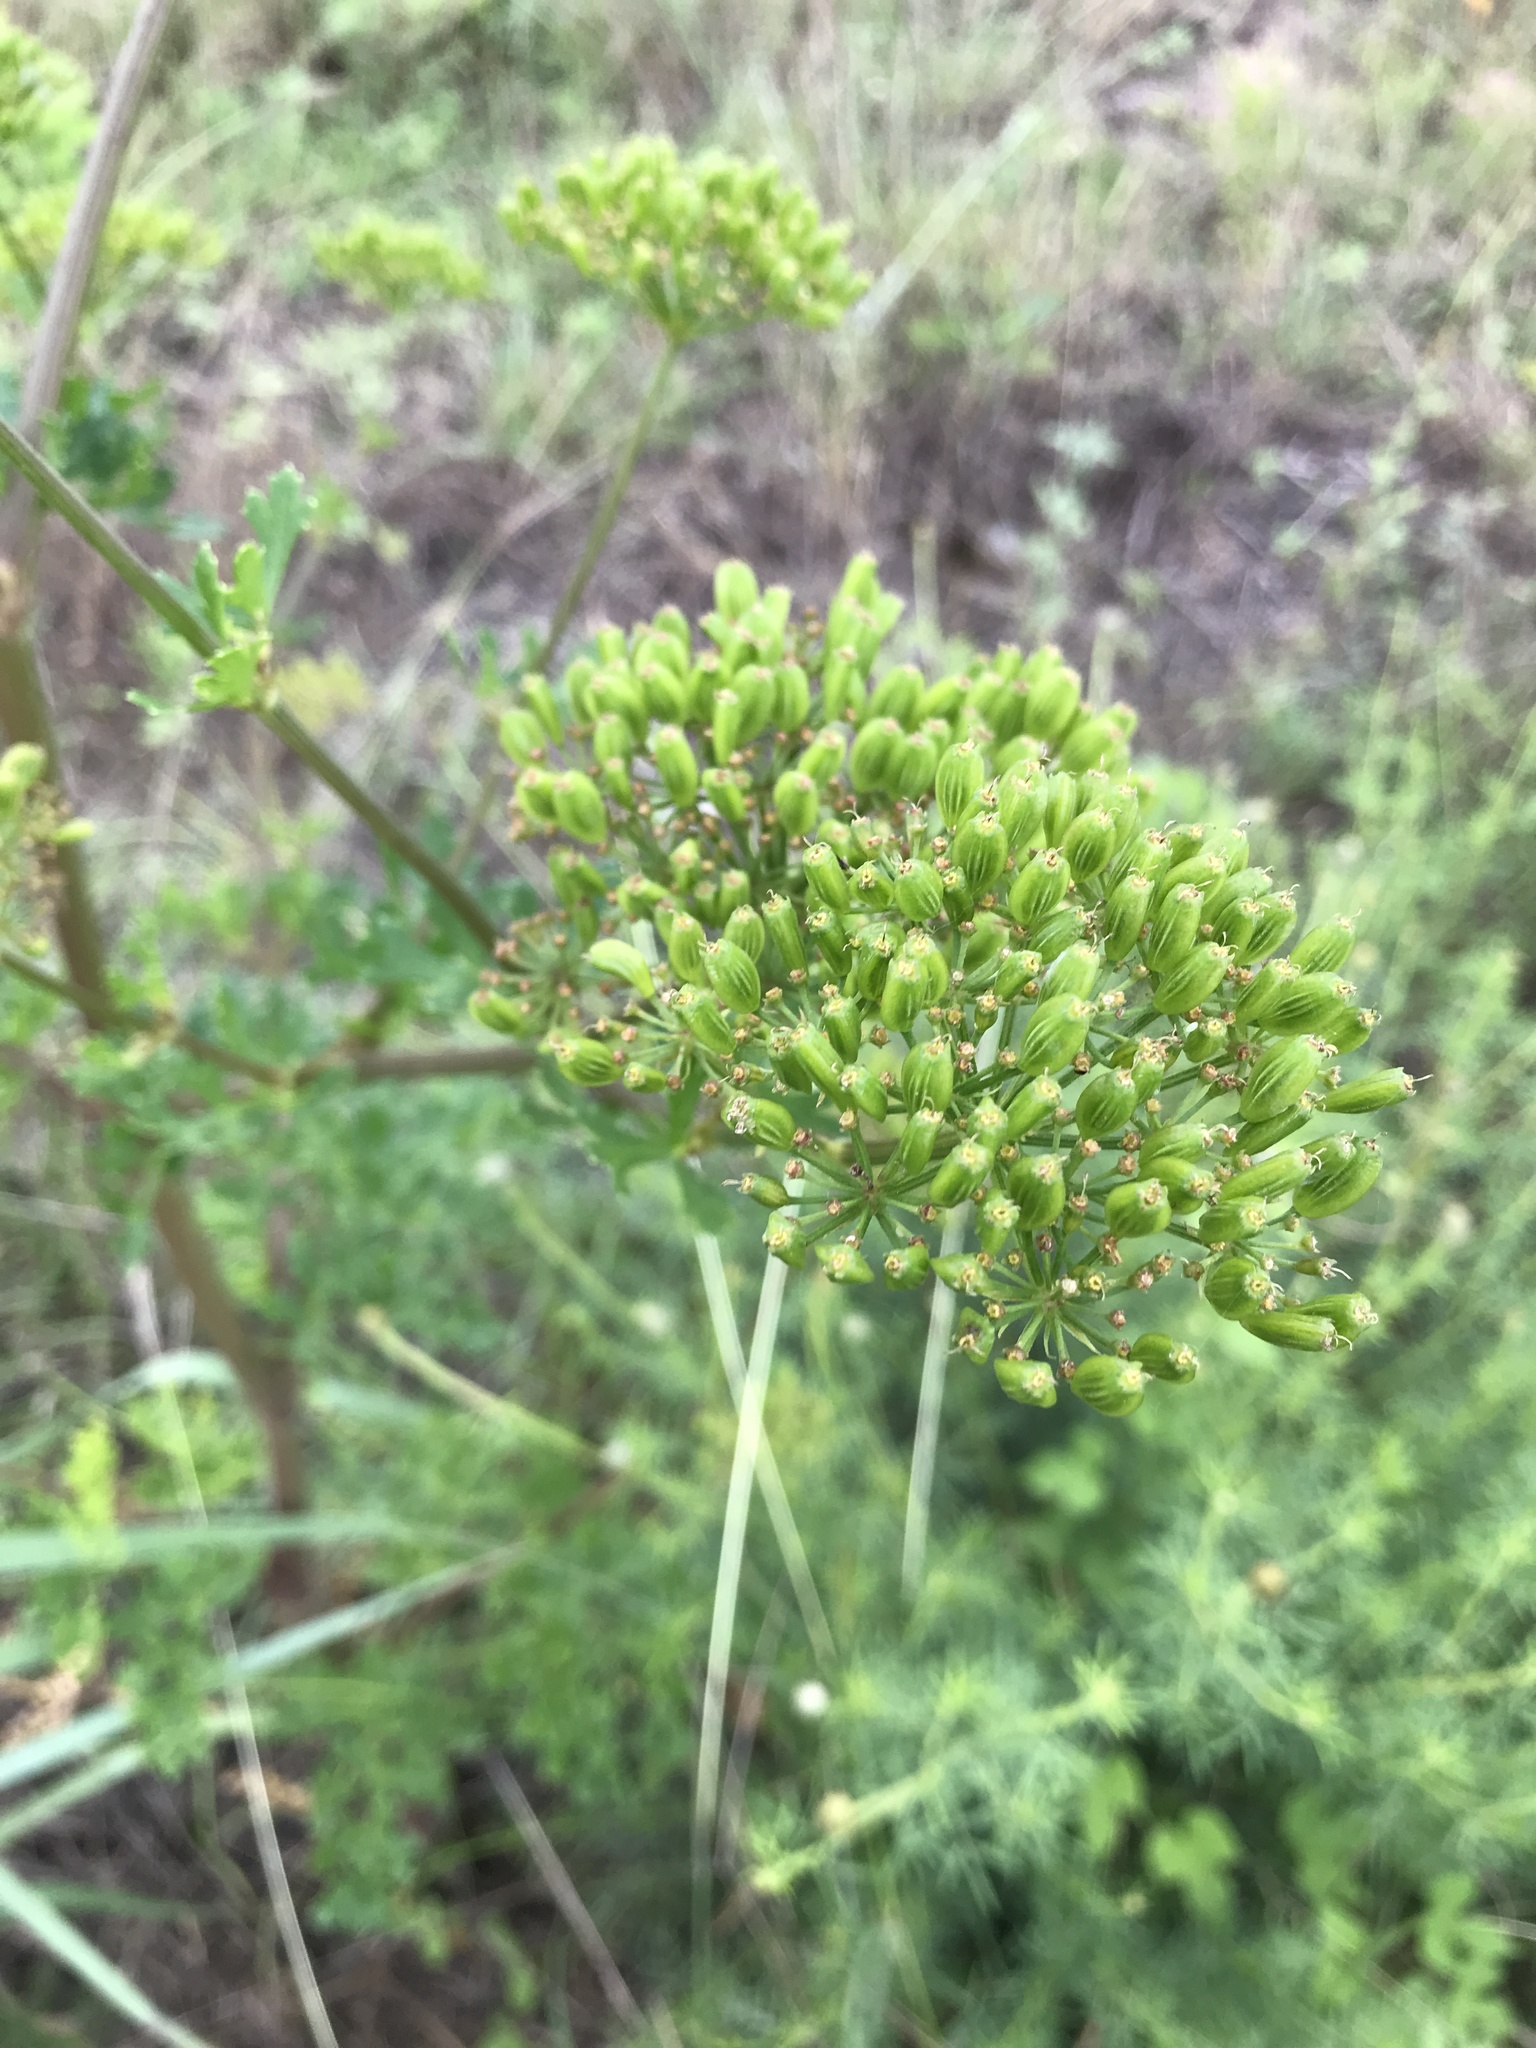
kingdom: Plantae
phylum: Tracheophyta
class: Magnoliopsida
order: Apiales
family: Apiaceae
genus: Polytaenia
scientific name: Polytaenia texana
